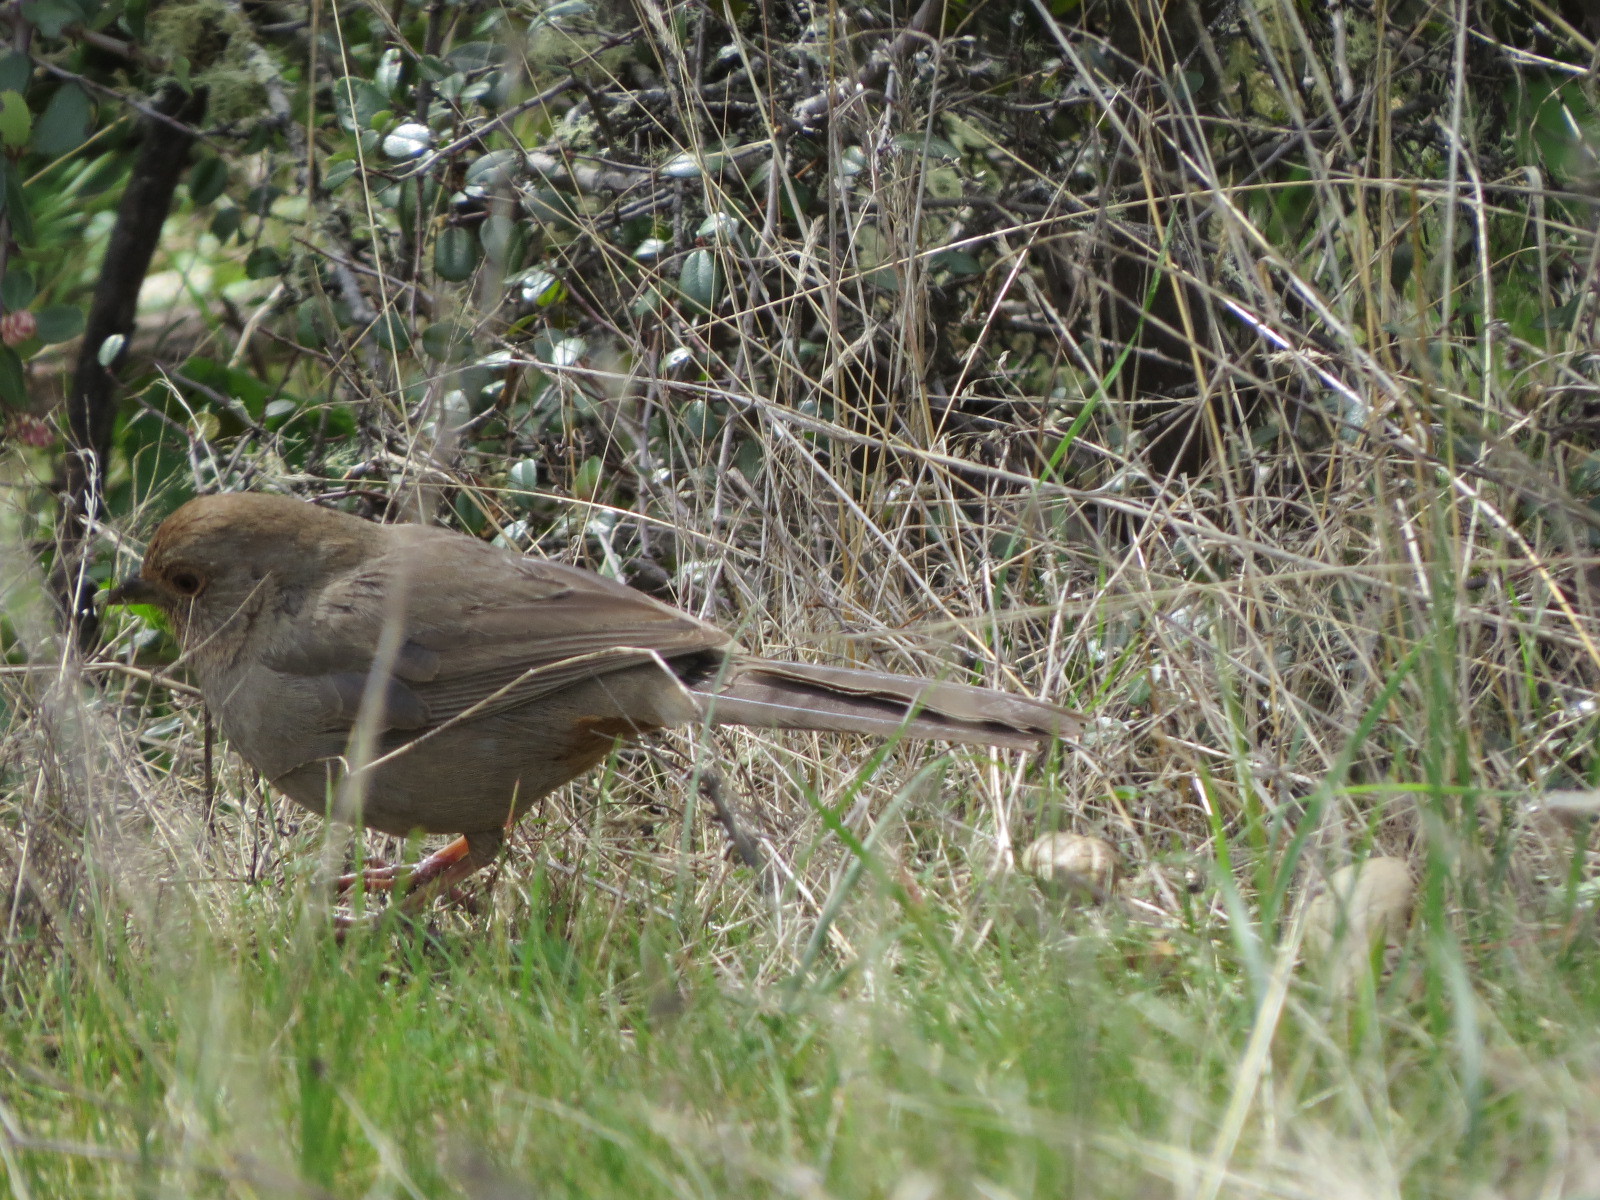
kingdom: Animalia
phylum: Chordata
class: Aves
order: Passeriformes
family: Passerellidae
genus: Melozone
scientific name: Melozone crissalis
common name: California towhee
